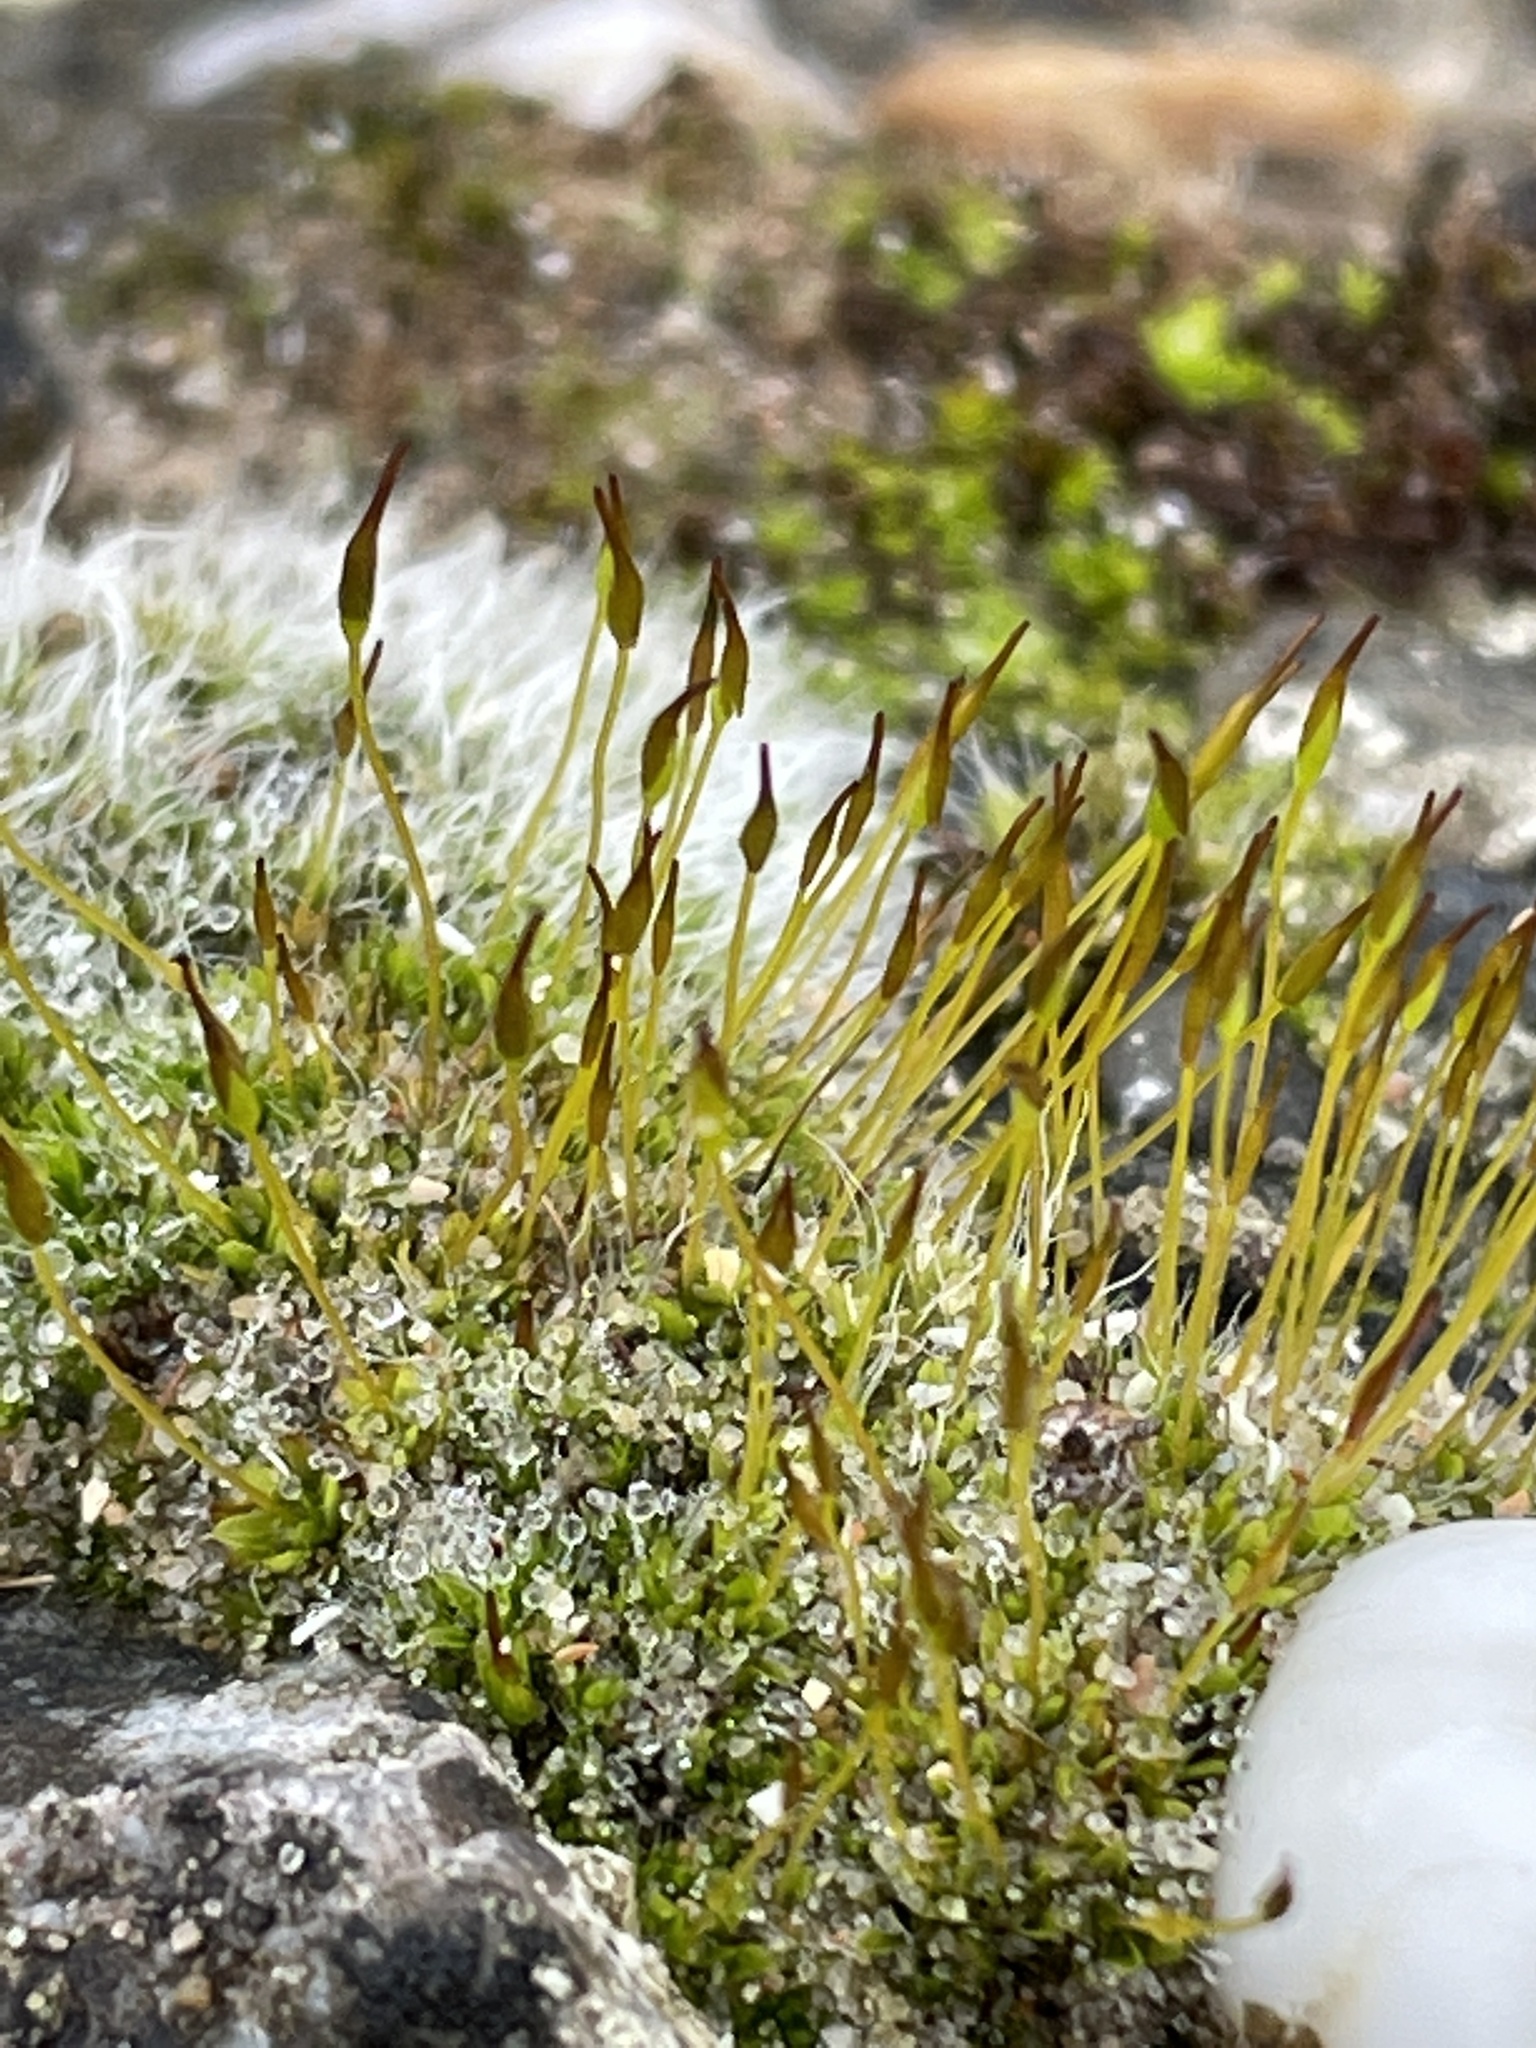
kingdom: Plantae
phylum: Bryophyta
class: Bryopsida
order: Pottiales
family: Pottiaceae
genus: Tortula
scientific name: Tortula muralis
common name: Wall screw-moss
